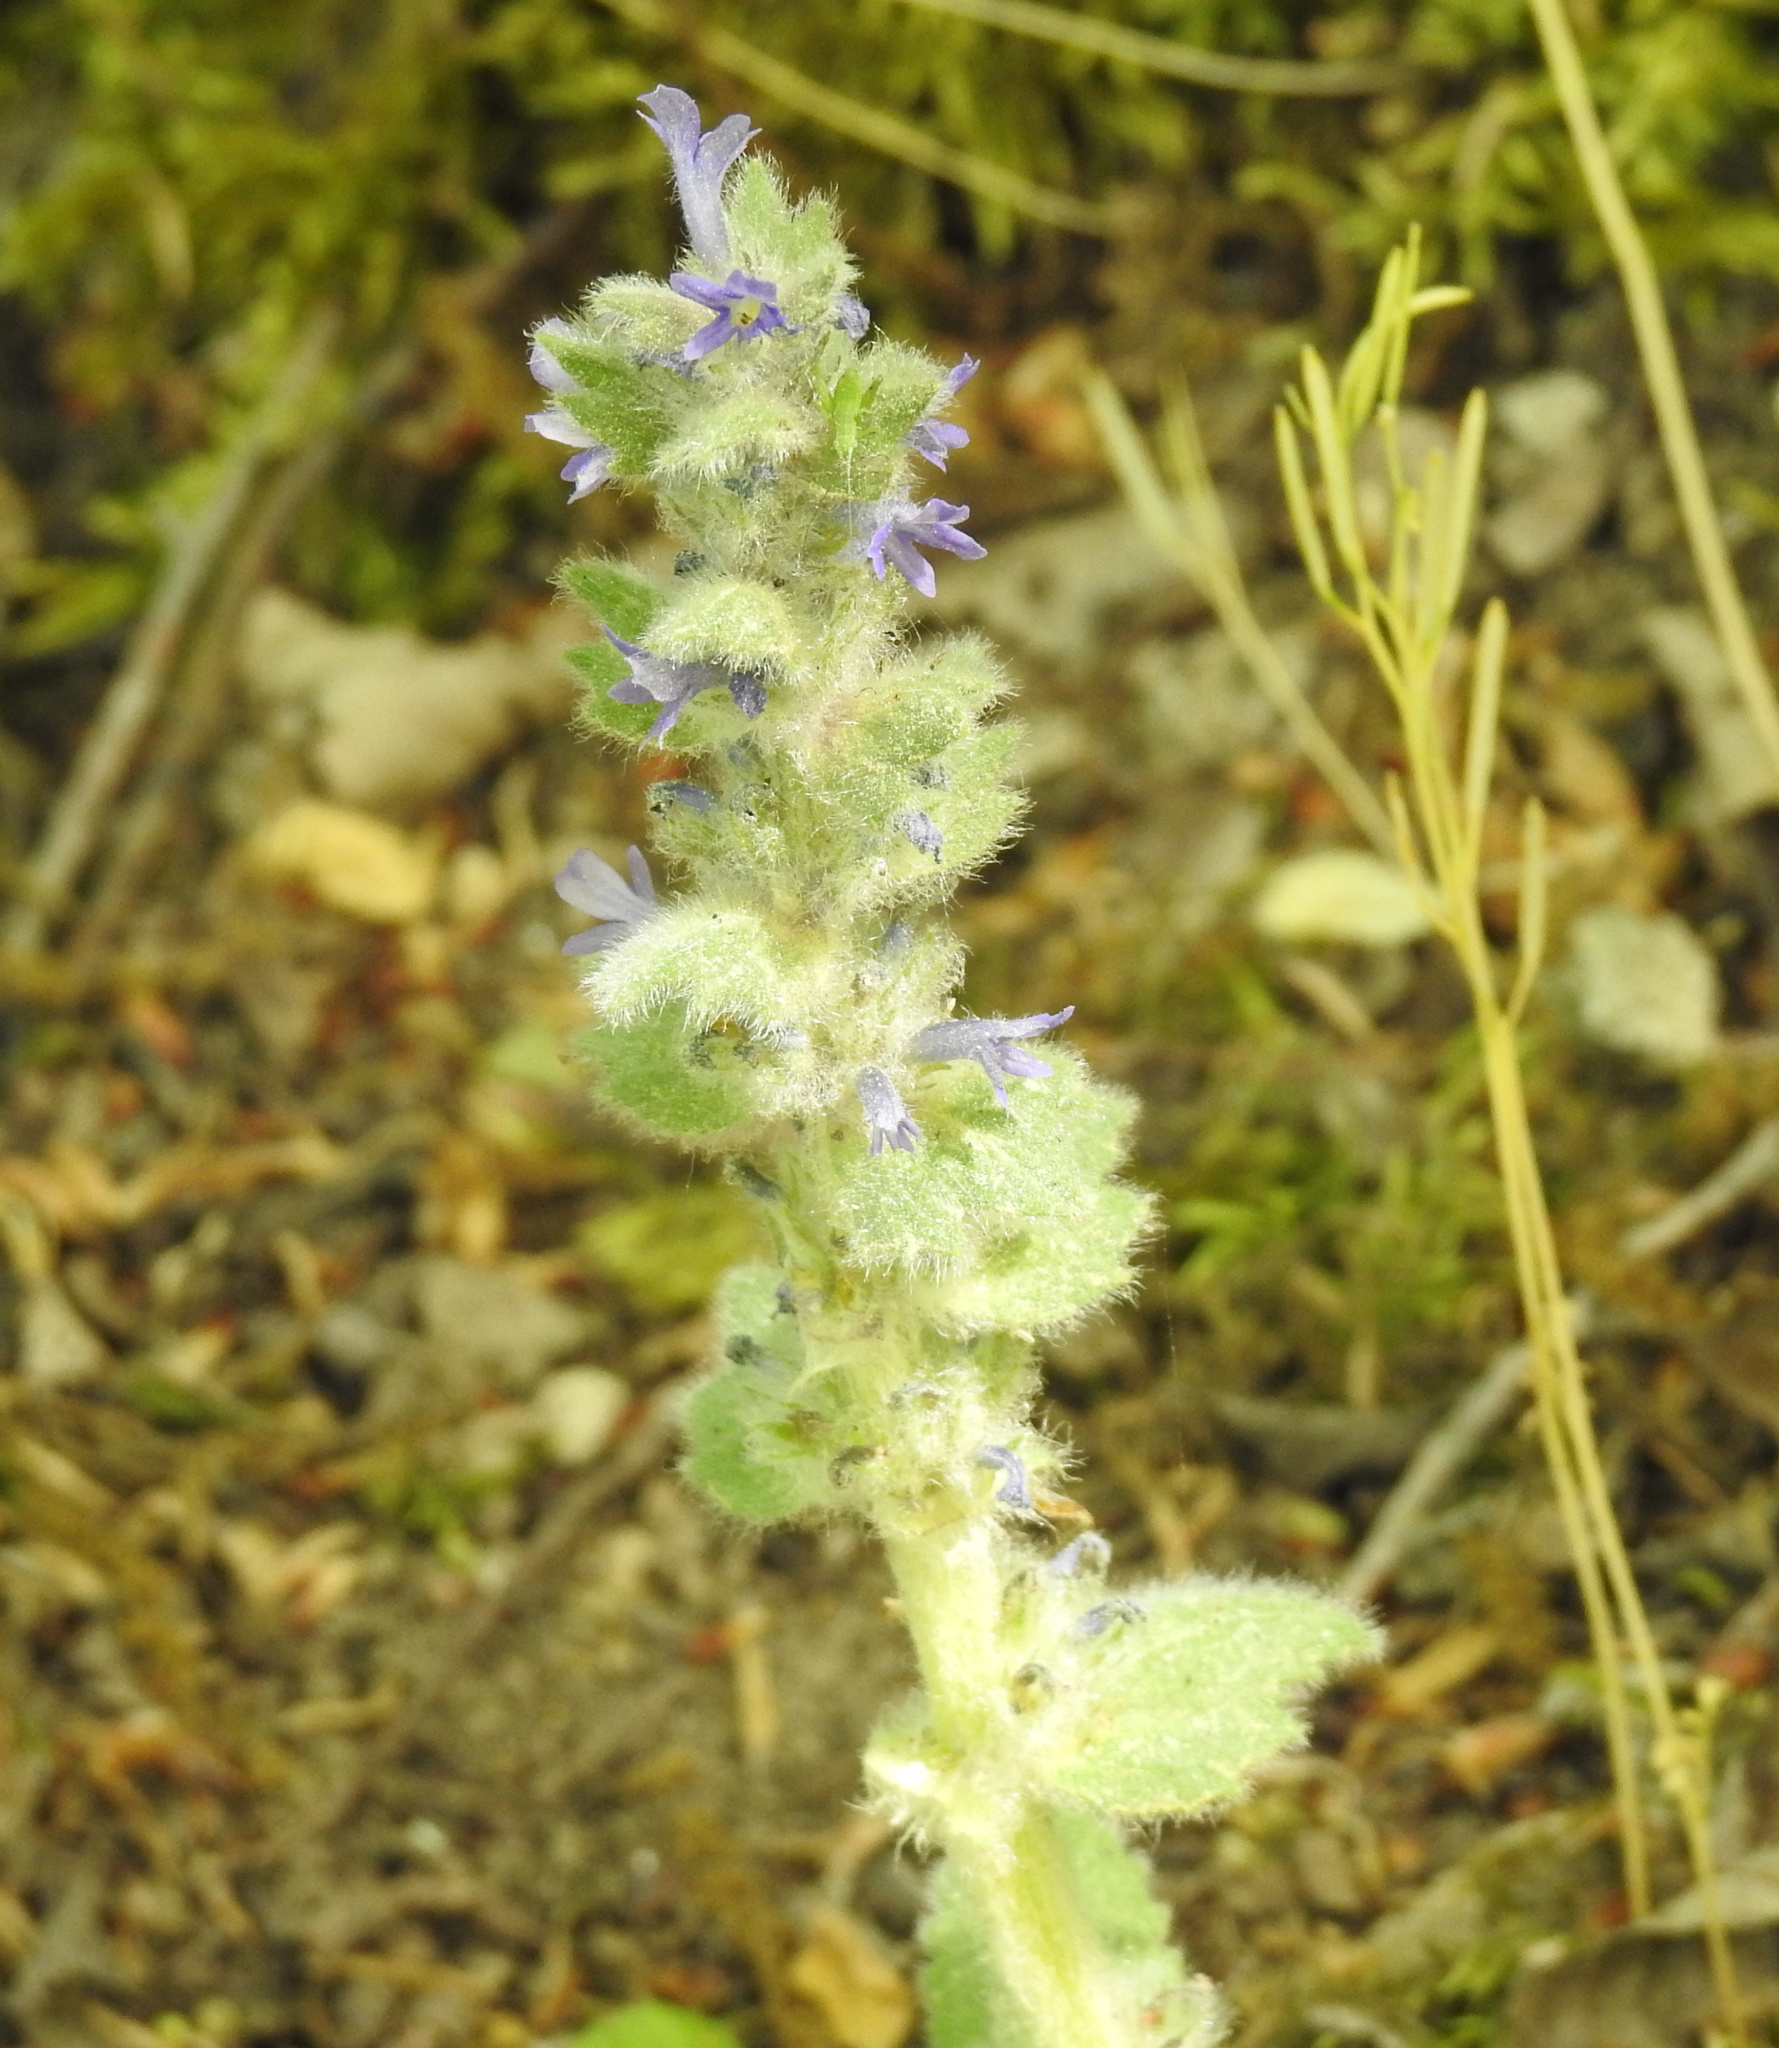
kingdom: Plantae
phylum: Tracheophyta
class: Magnoliopsida
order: Lamiales
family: Lamiaceae
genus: Ajuga
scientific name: Ajuga orientalis
